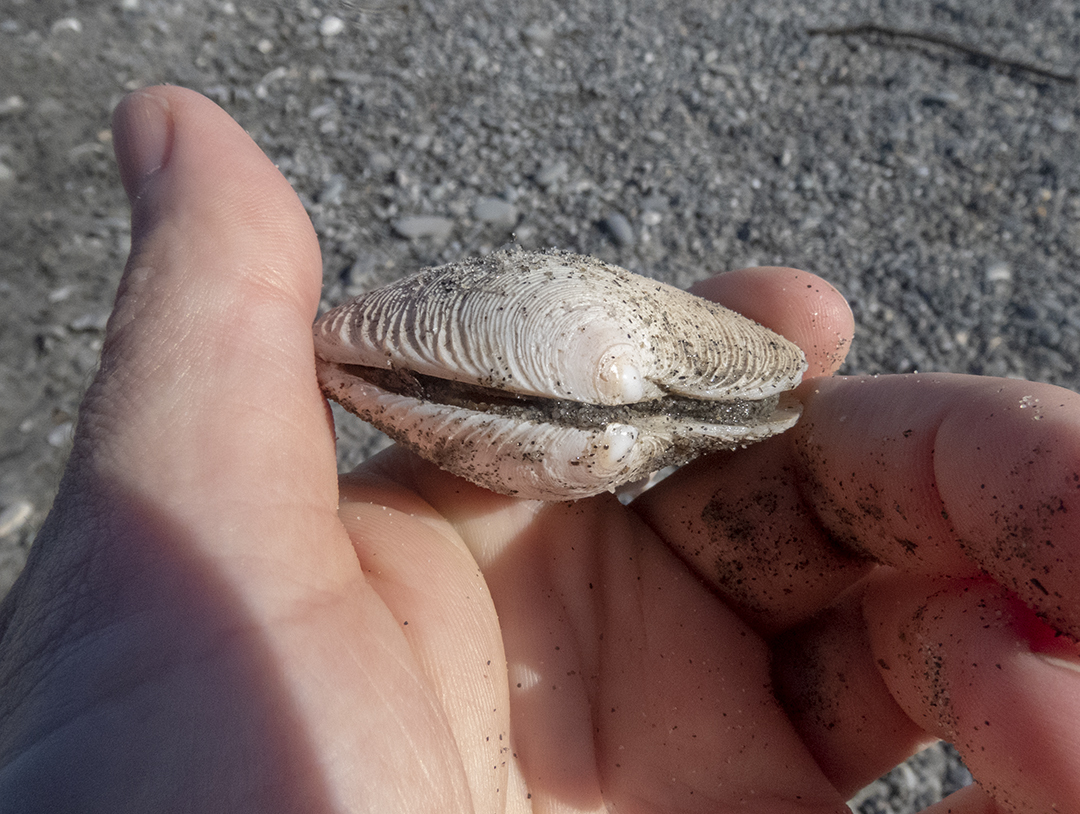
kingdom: Animalia
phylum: Mollusca
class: Bivalvia
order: Venerida
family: Veneridae
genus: Dosinia
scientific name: Dosinia anus
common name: Old-woman dosinia
